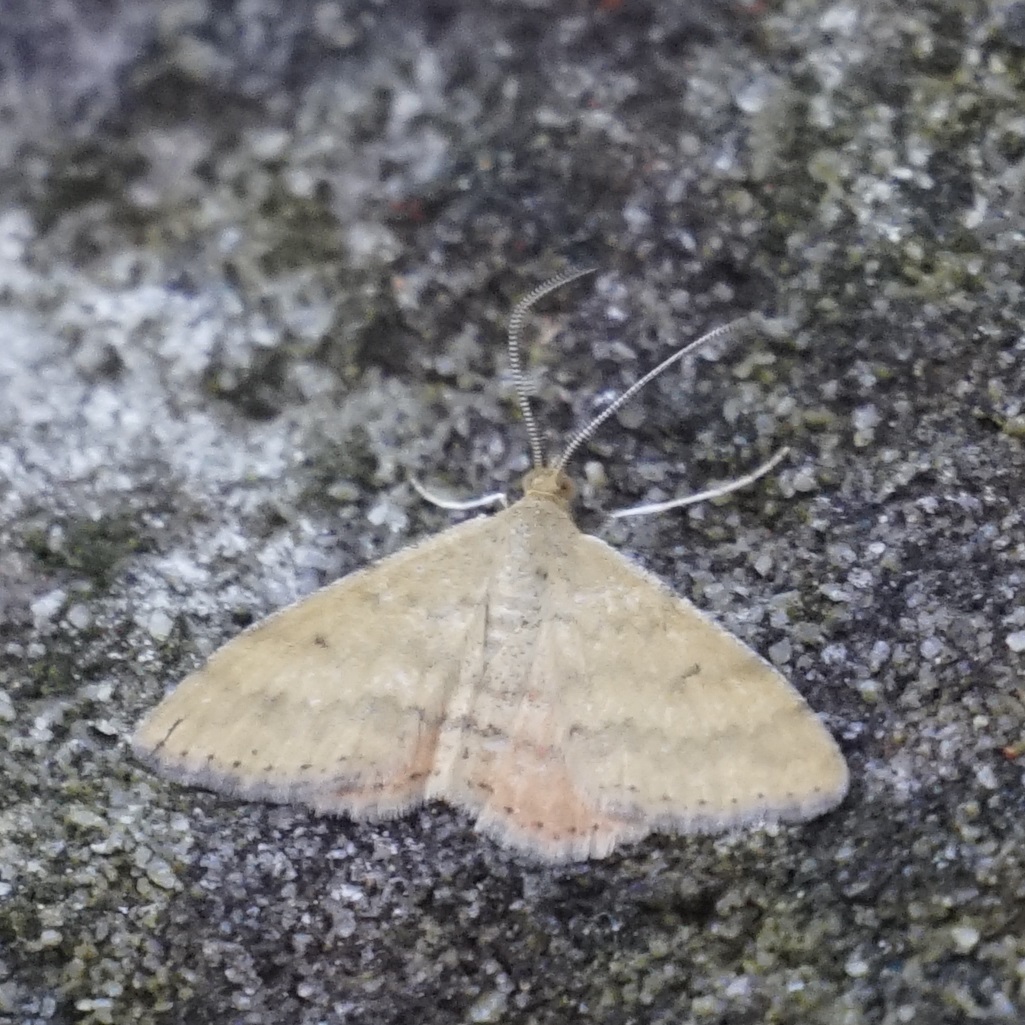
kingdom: Animalia
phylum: Arthropoda
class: Insecta
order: Lepidoptera
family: Geometridae
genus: Scopula
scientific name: Scopula rubraria
